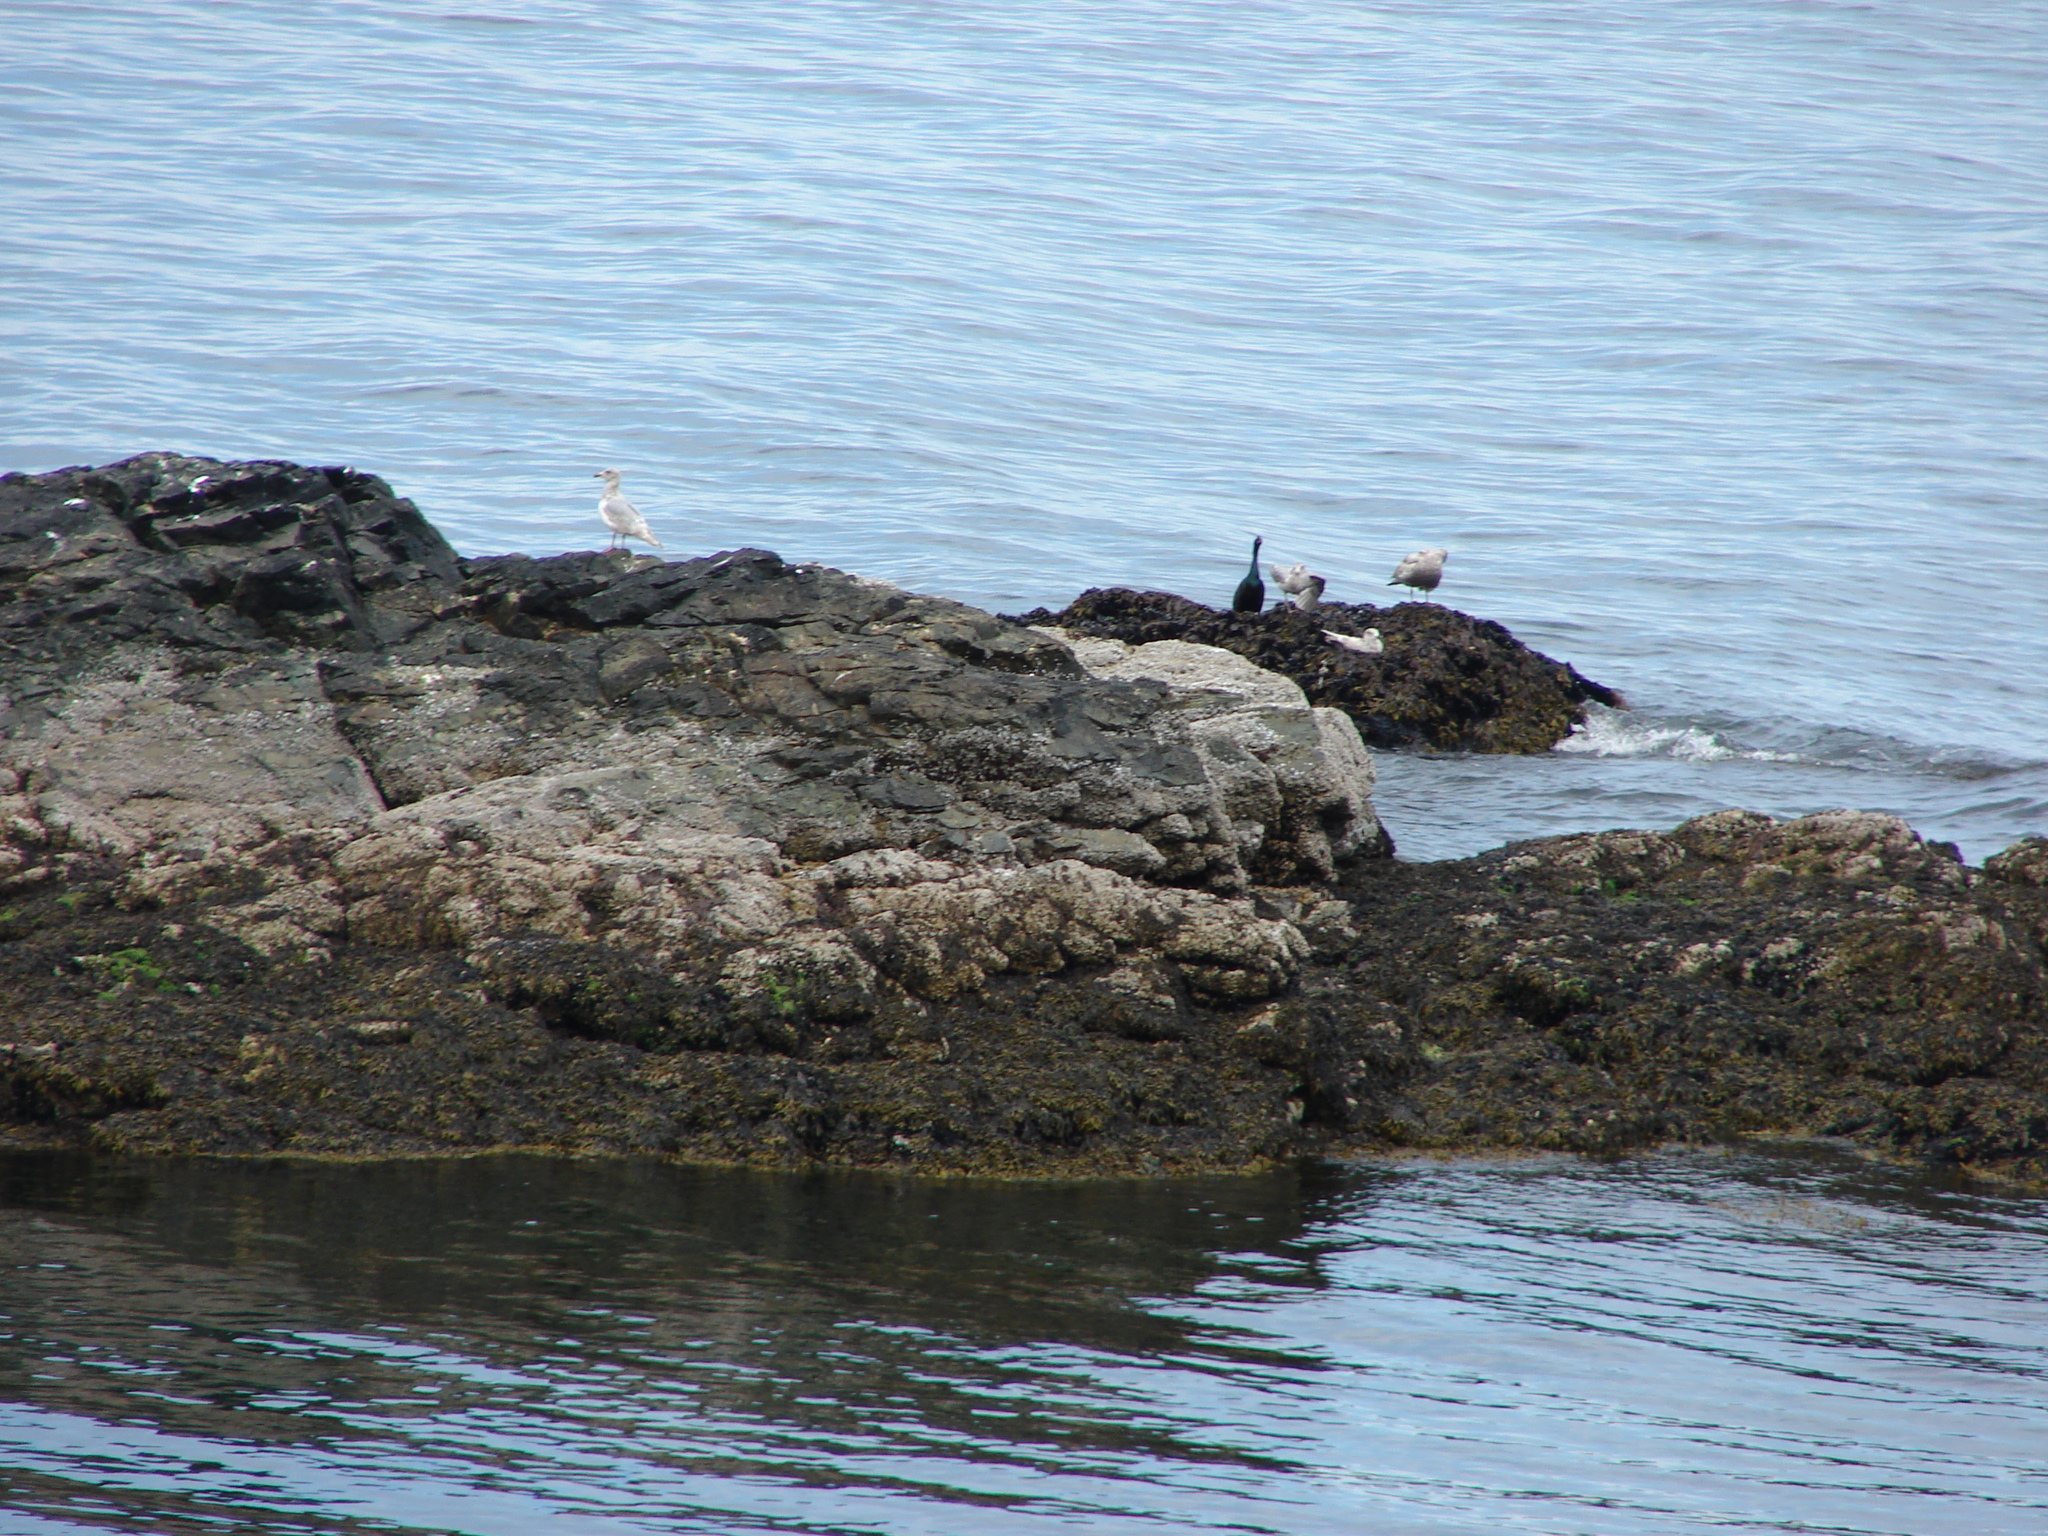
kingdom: Animalia
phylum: Chordata
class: Aves
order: Suliformes
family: Phalacrocoracidae
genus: Phalacrocorax
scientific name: Phalacrocorax pelagicus
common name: Pelagic cormorant
